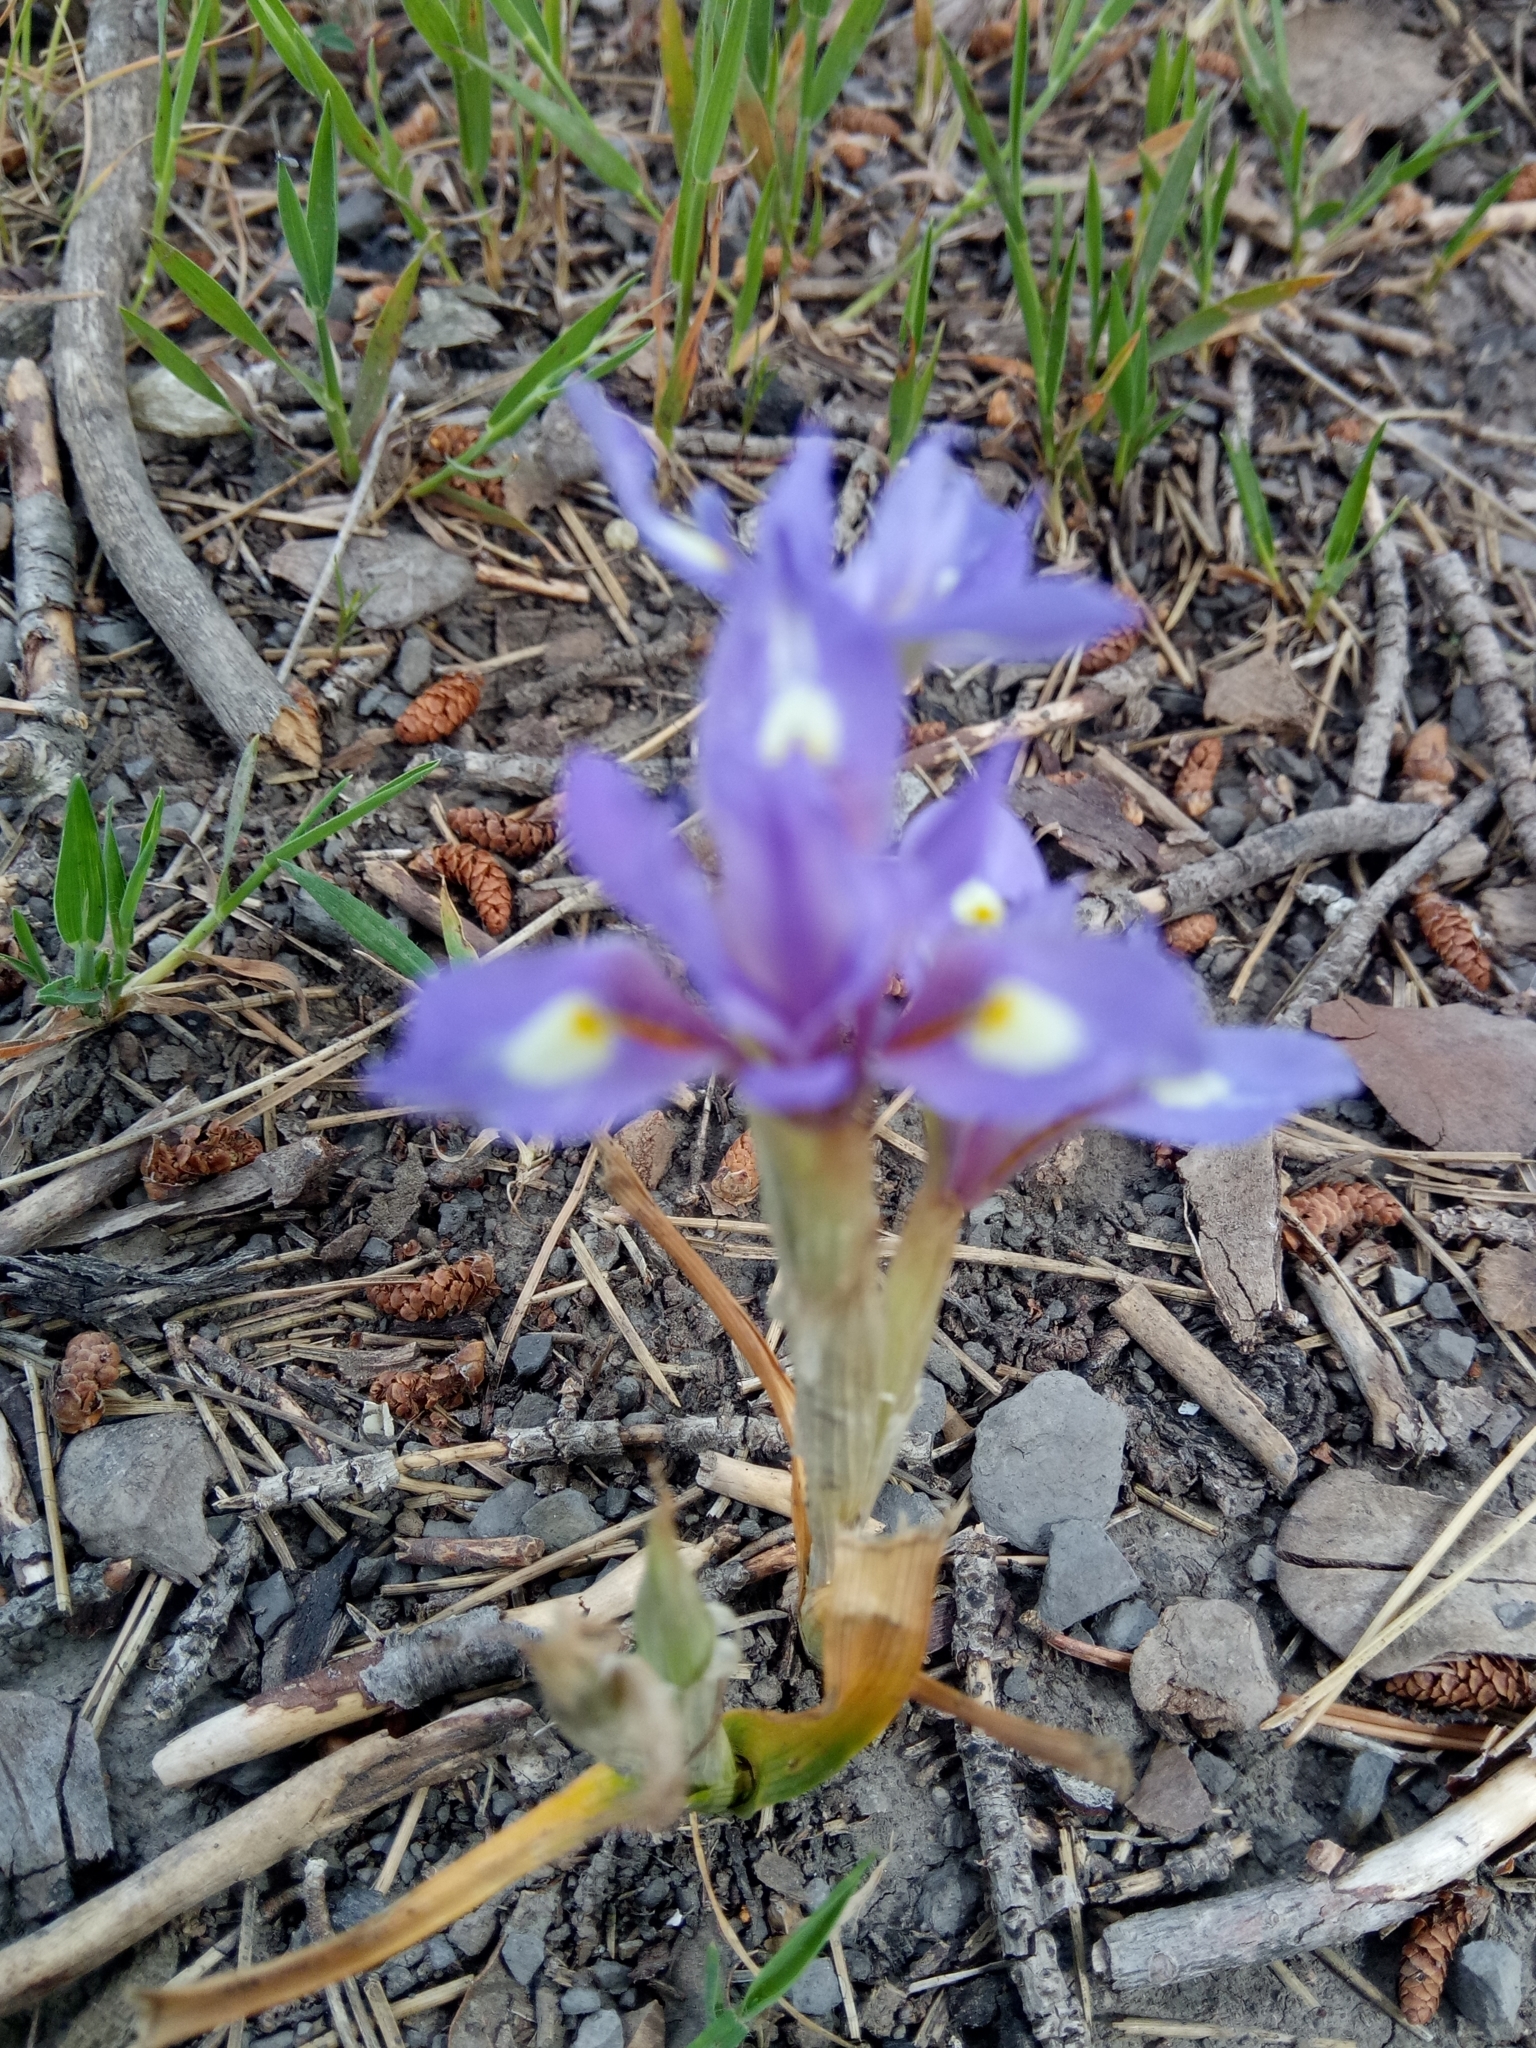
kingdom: Plantae
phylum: Tracheophyta
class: Liliopsida
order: Asparagales
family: Iridaceae
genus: Moraea
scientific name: Moraea sisyrinchium
